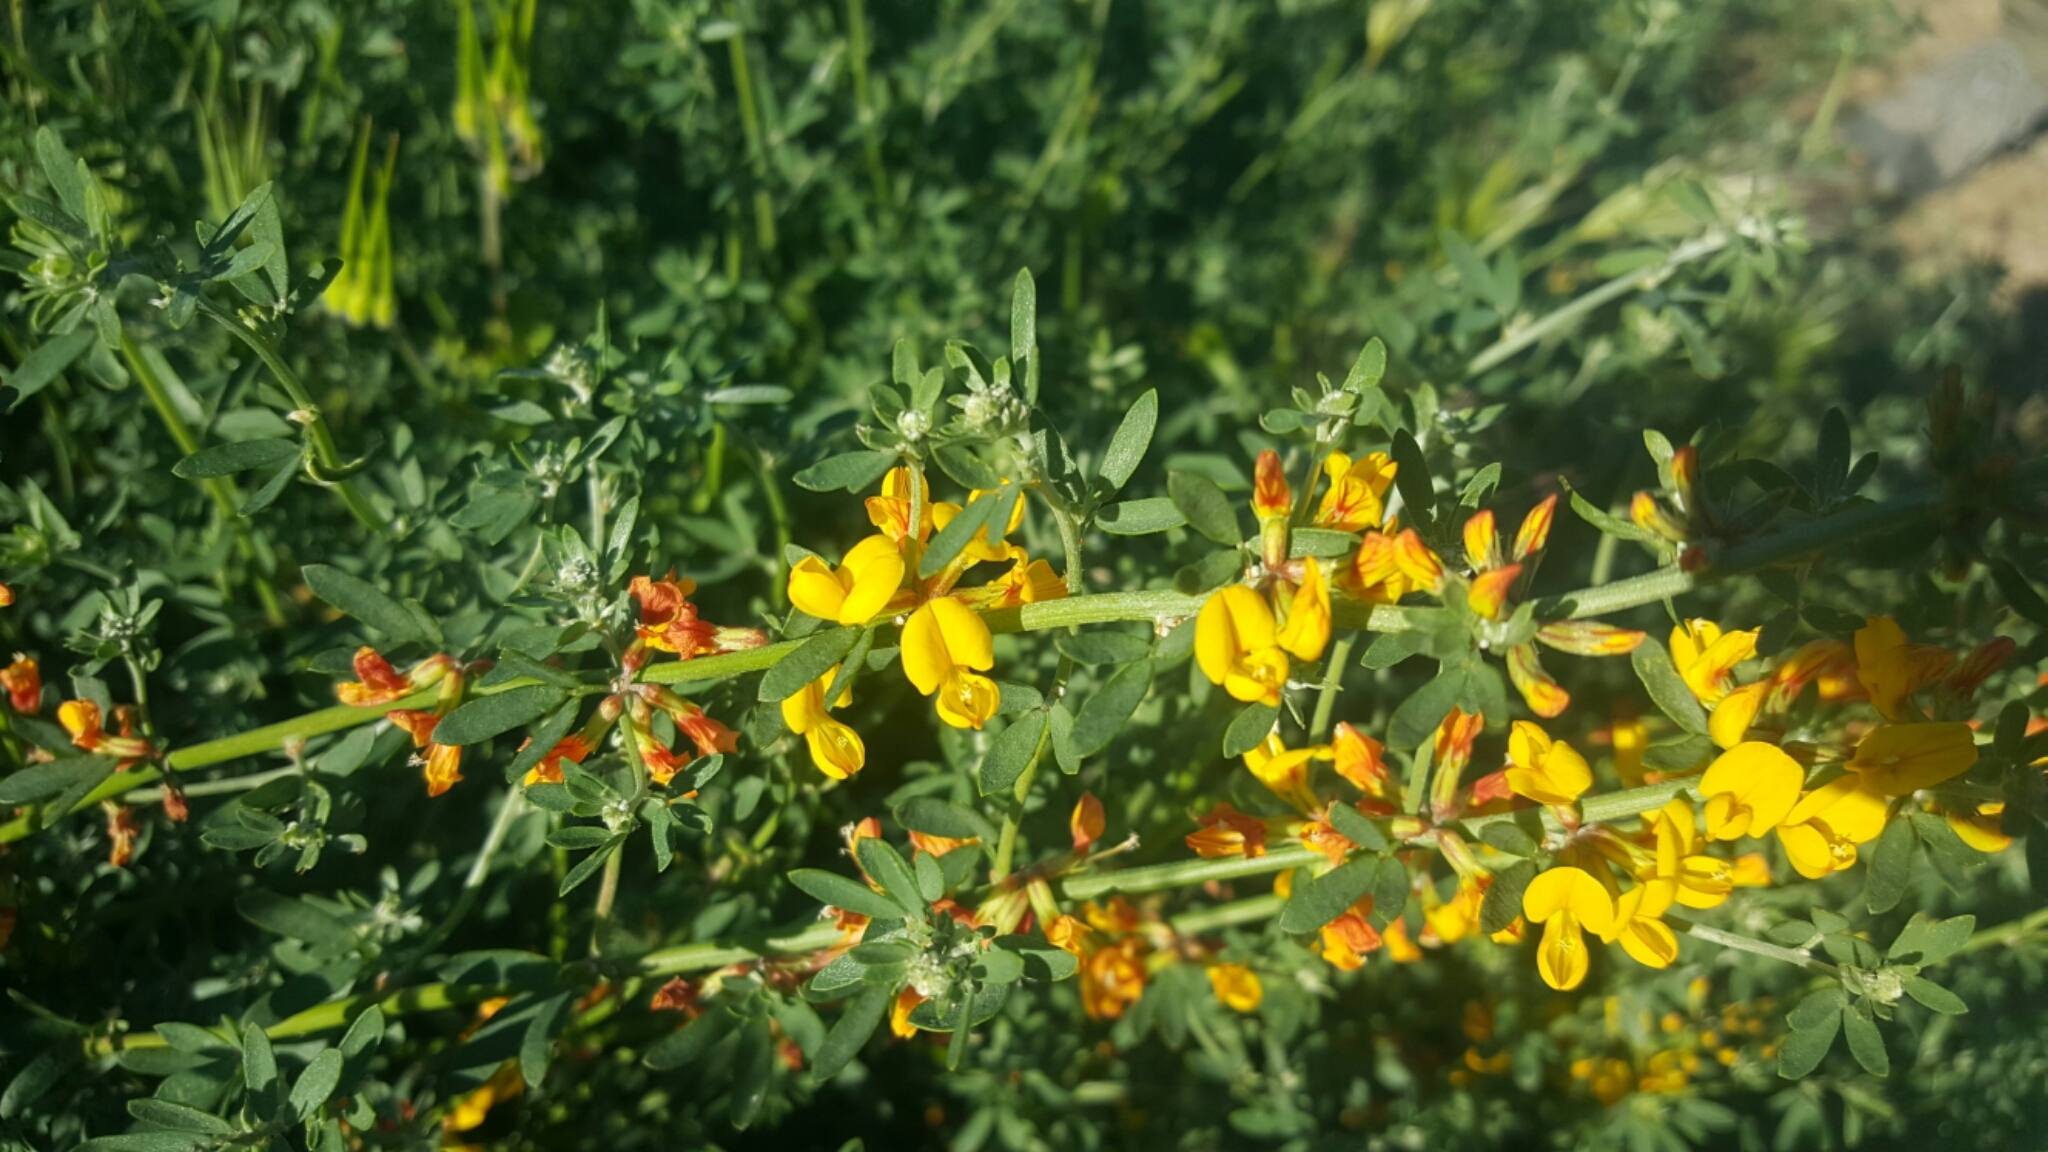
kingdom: Plantae
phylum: Tracheophyta
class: Magnoliopsida
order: Fabales
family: Fabaceae
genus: Acmispon
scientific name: Acmispon glaber
